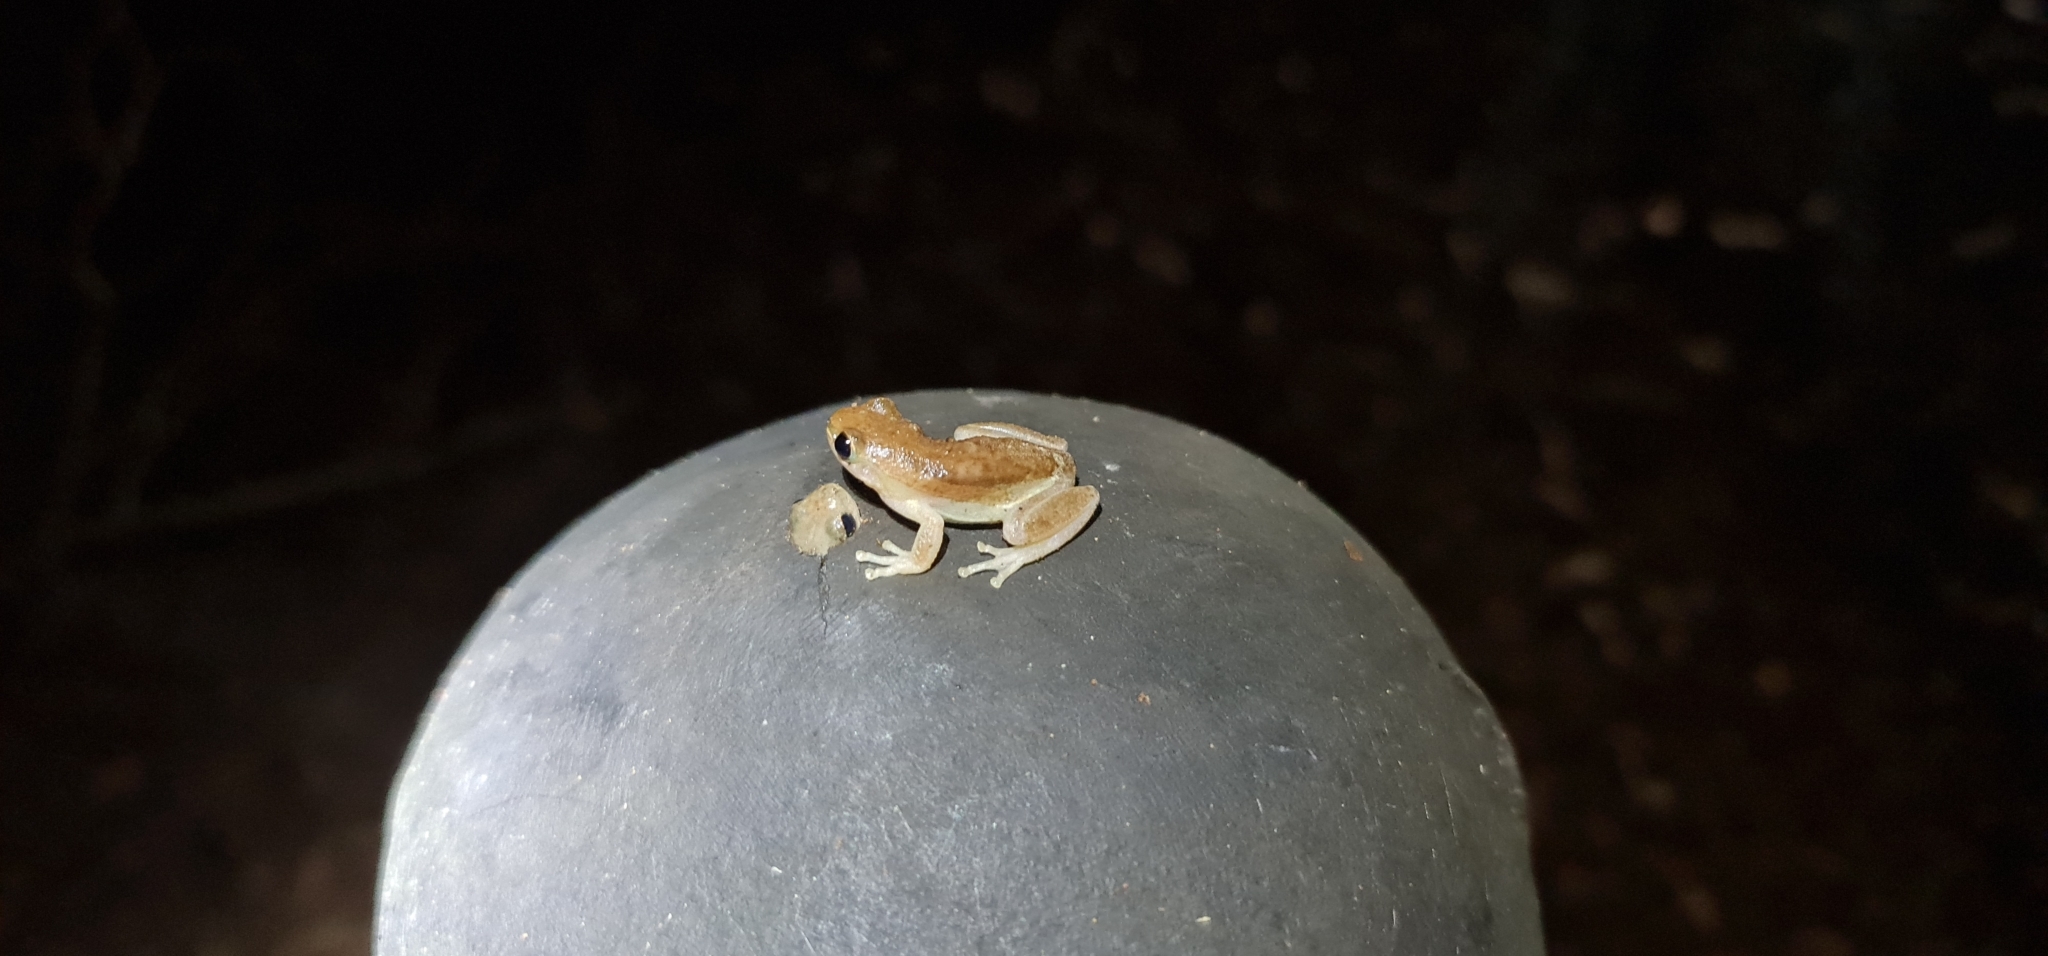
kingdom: Animalia
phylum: Chordata
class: Amphibia
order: Anura
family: Pelodryadidae
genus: Litoria
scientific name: Litoria rubella
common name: Desert tree frog
